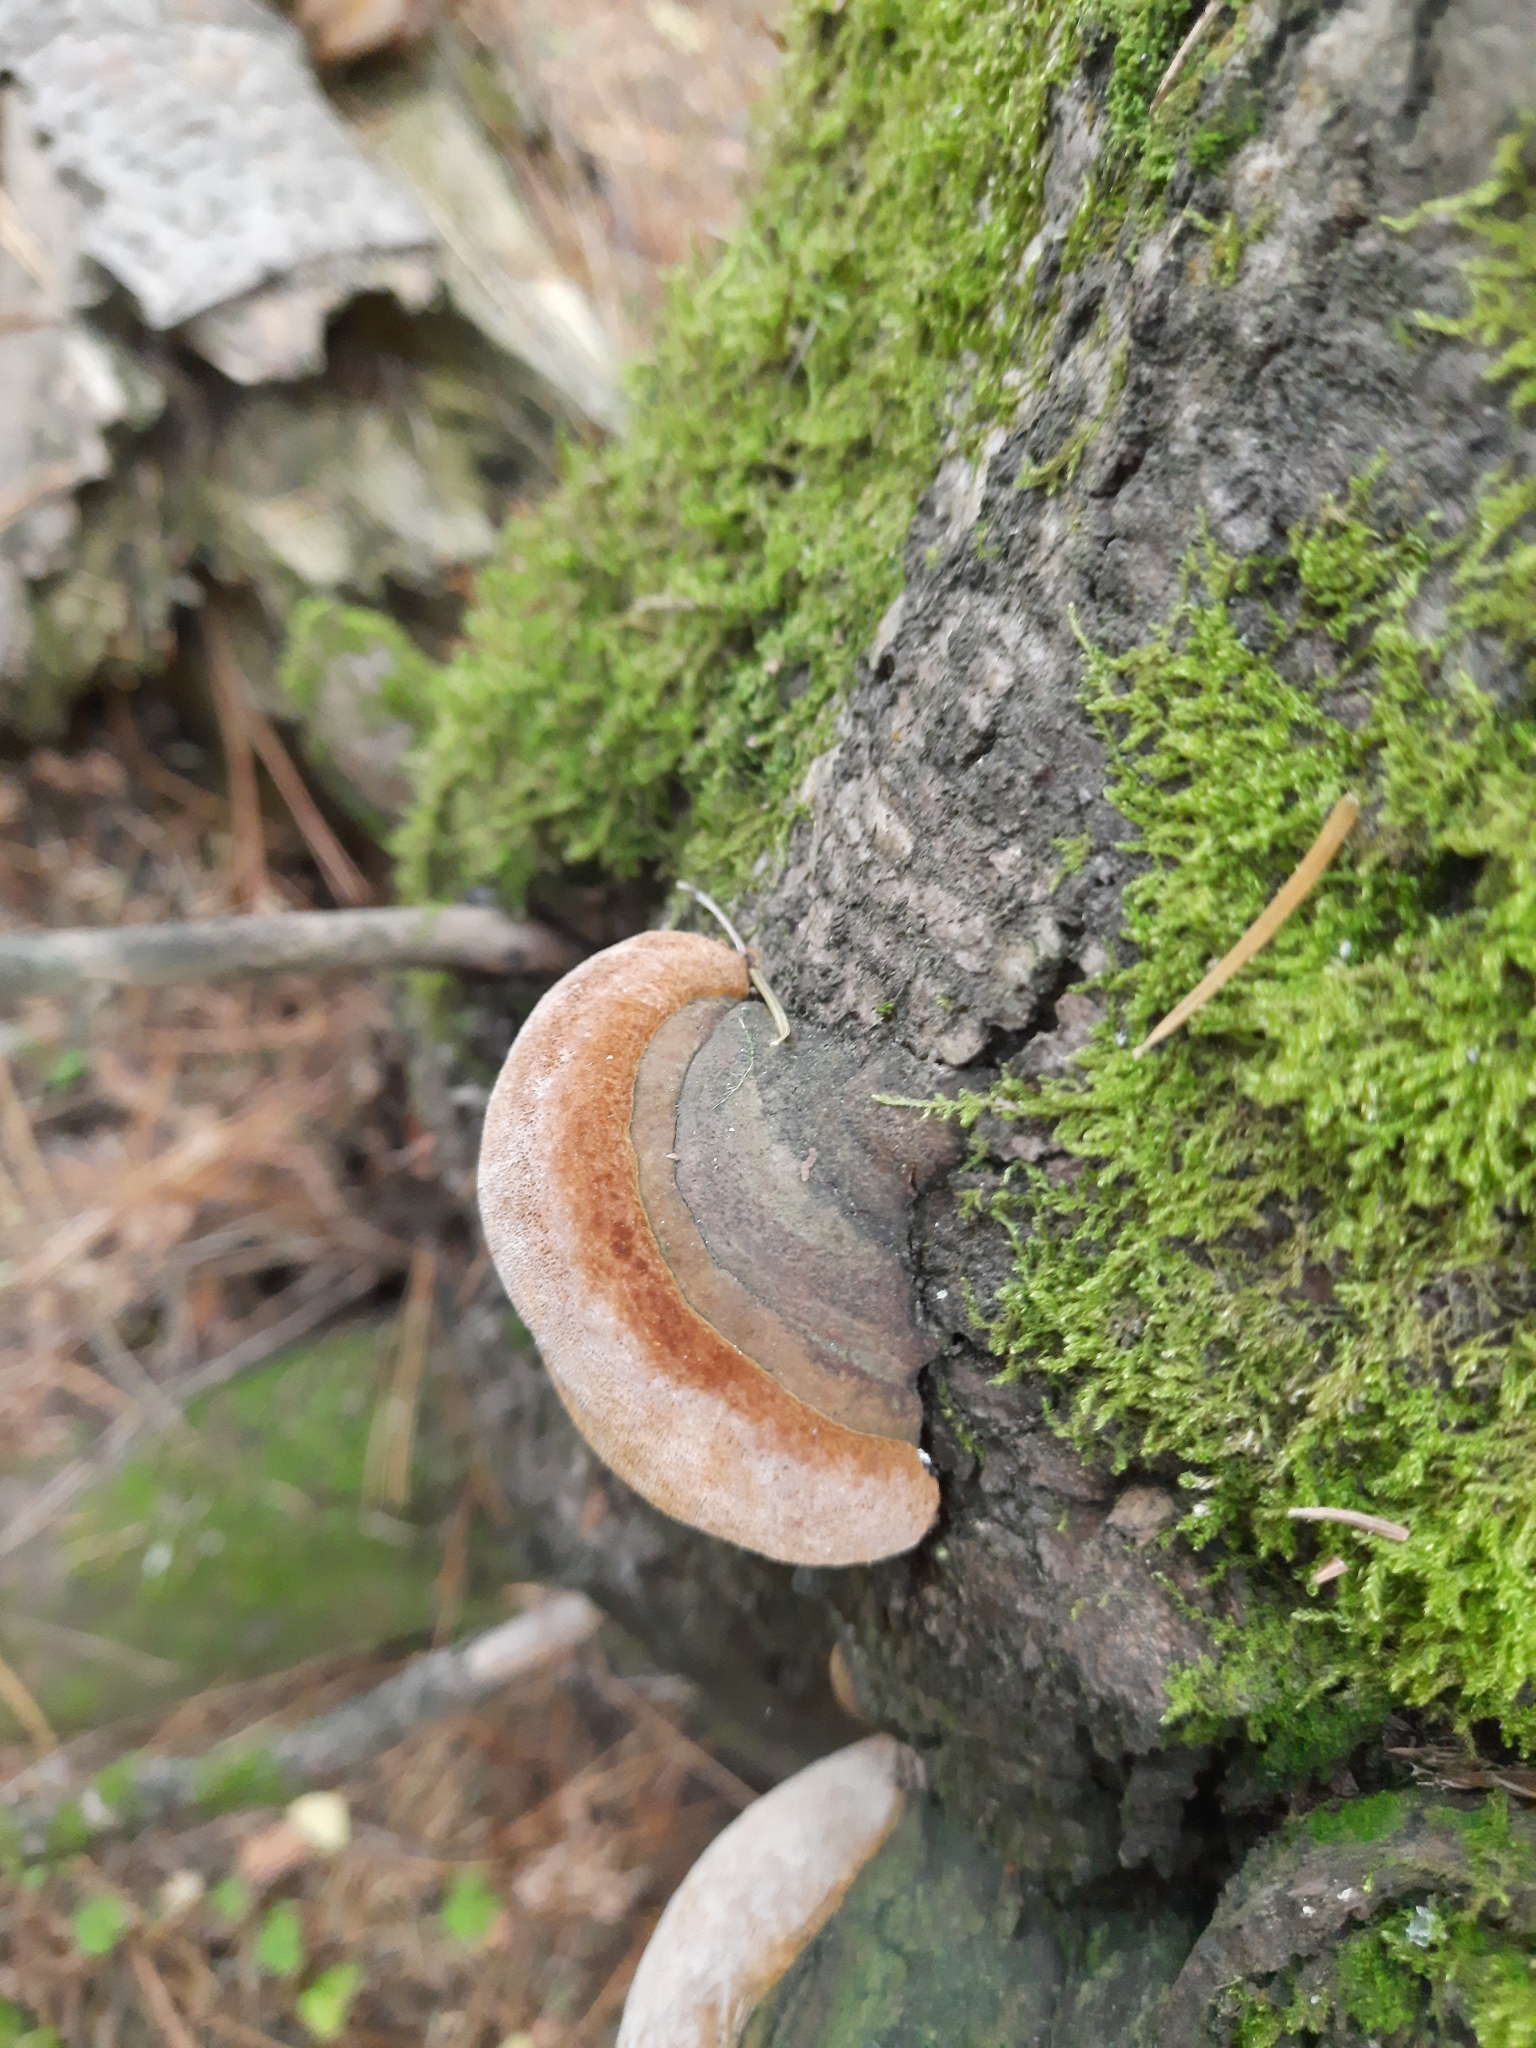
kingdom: Fungi
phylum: Basidiomycota
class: Agaricomycetes
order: Hymenochaetales
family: Hymenochaetaceae
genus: Phellinus
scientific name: Phellinus igniarius
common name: Willow bracket
